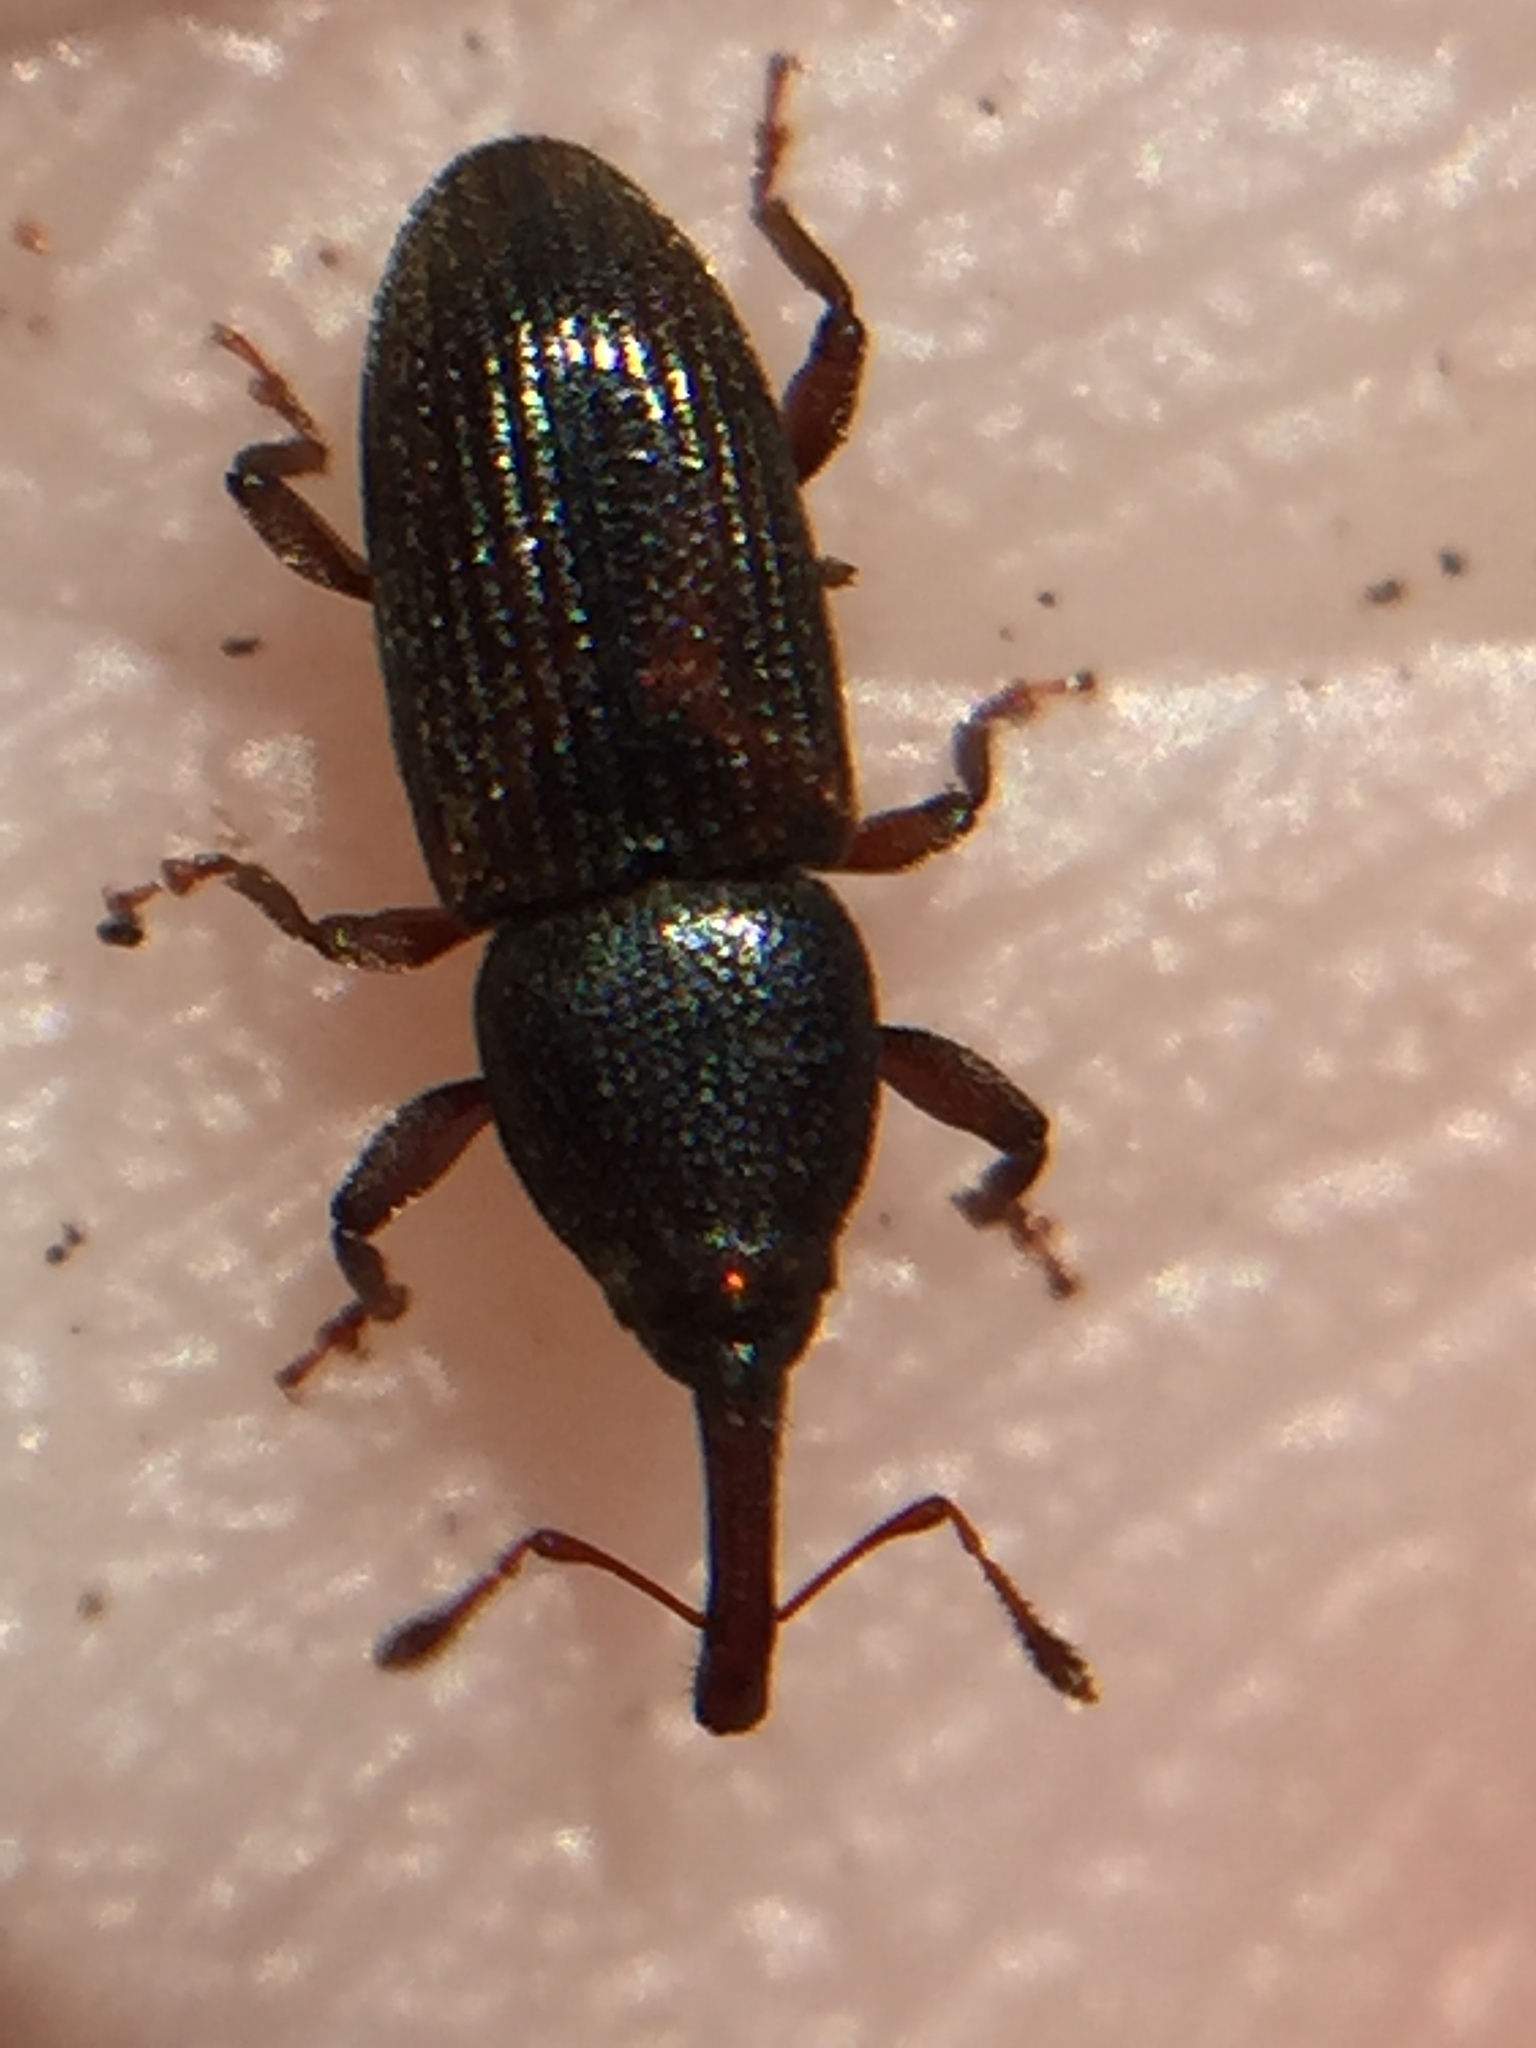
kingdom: Animalia
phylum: Arthropoda
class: Insecta
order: Coleoptera
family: Curculionidae
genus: Arecophaga
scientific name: Arecophaga varia
